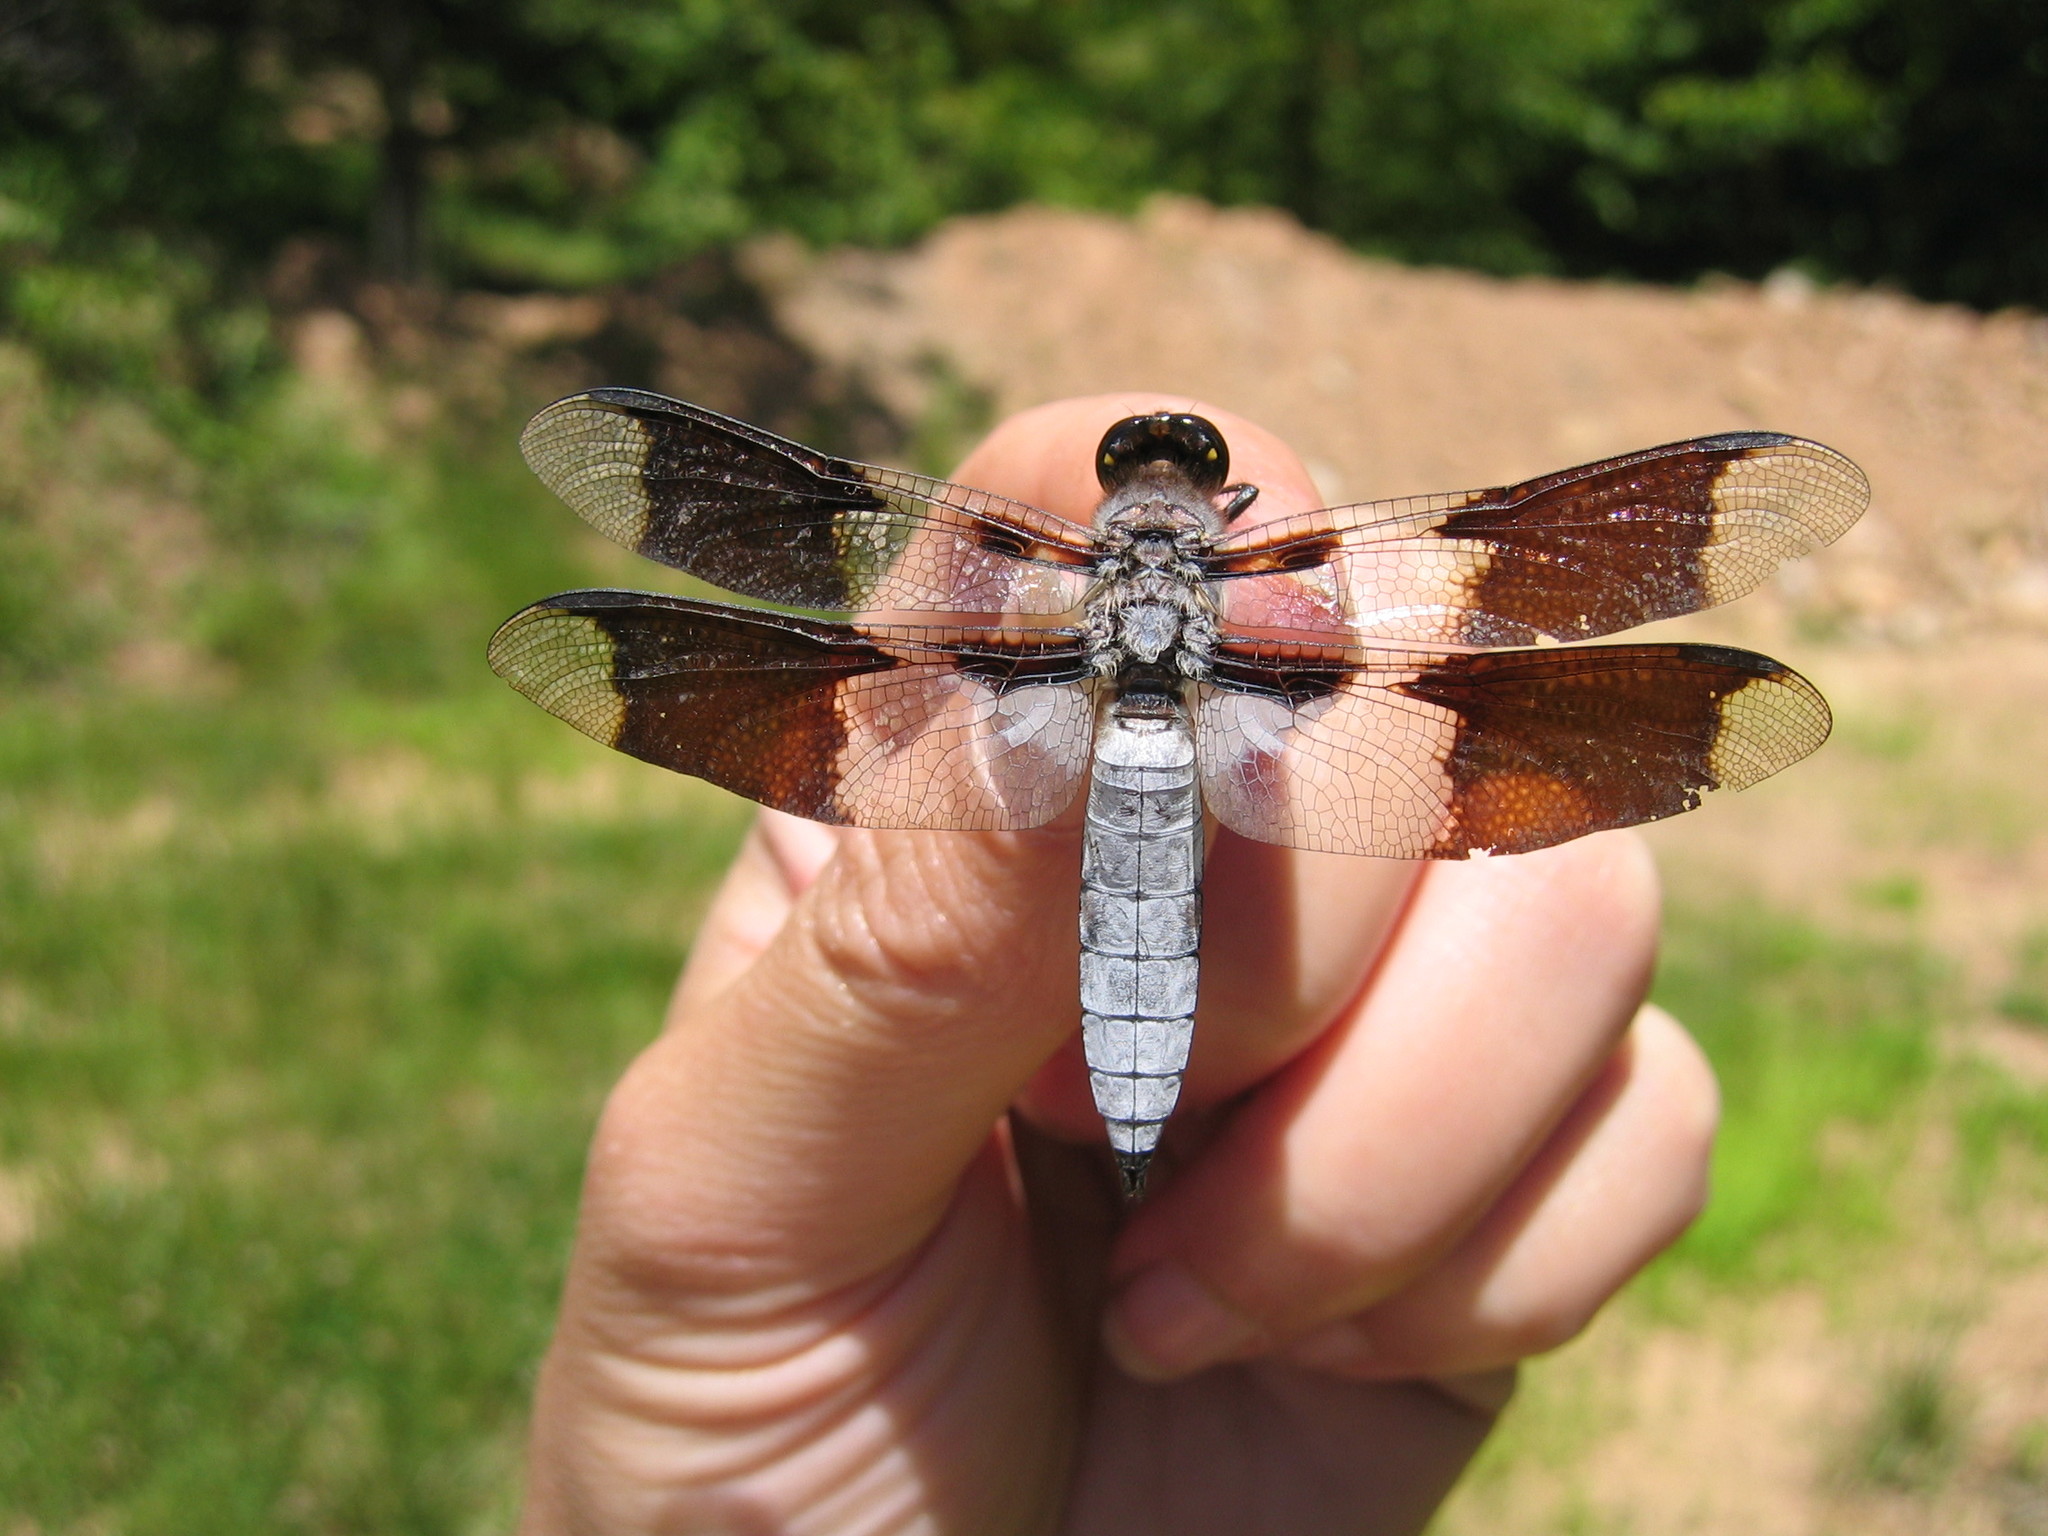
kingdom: Animalia
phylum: Arthropoda
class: Insecta
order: Odonata
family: Libellulidae
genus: Plathemis
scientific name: Plathemis lydia
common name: Common whitetail
